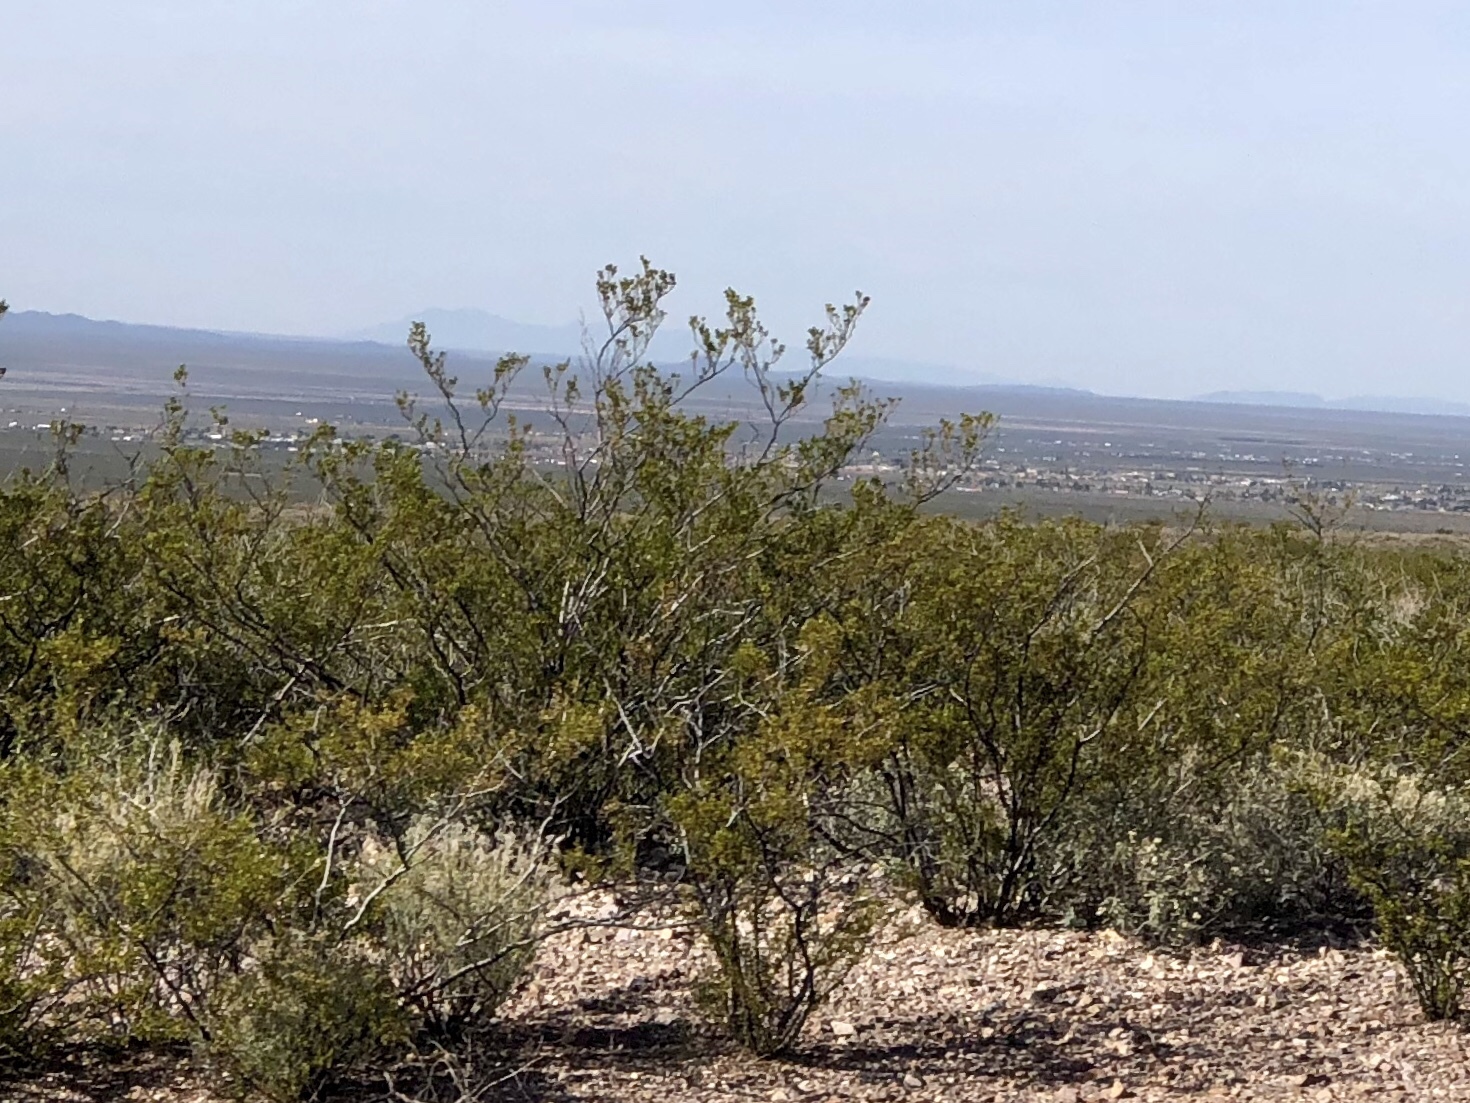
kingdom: Plantae
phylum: Tracheophyta
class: Magnoliopsida
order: Zygophyllales
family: Zygophyllaceae
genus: Larrea
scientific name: Larrea tridentata
